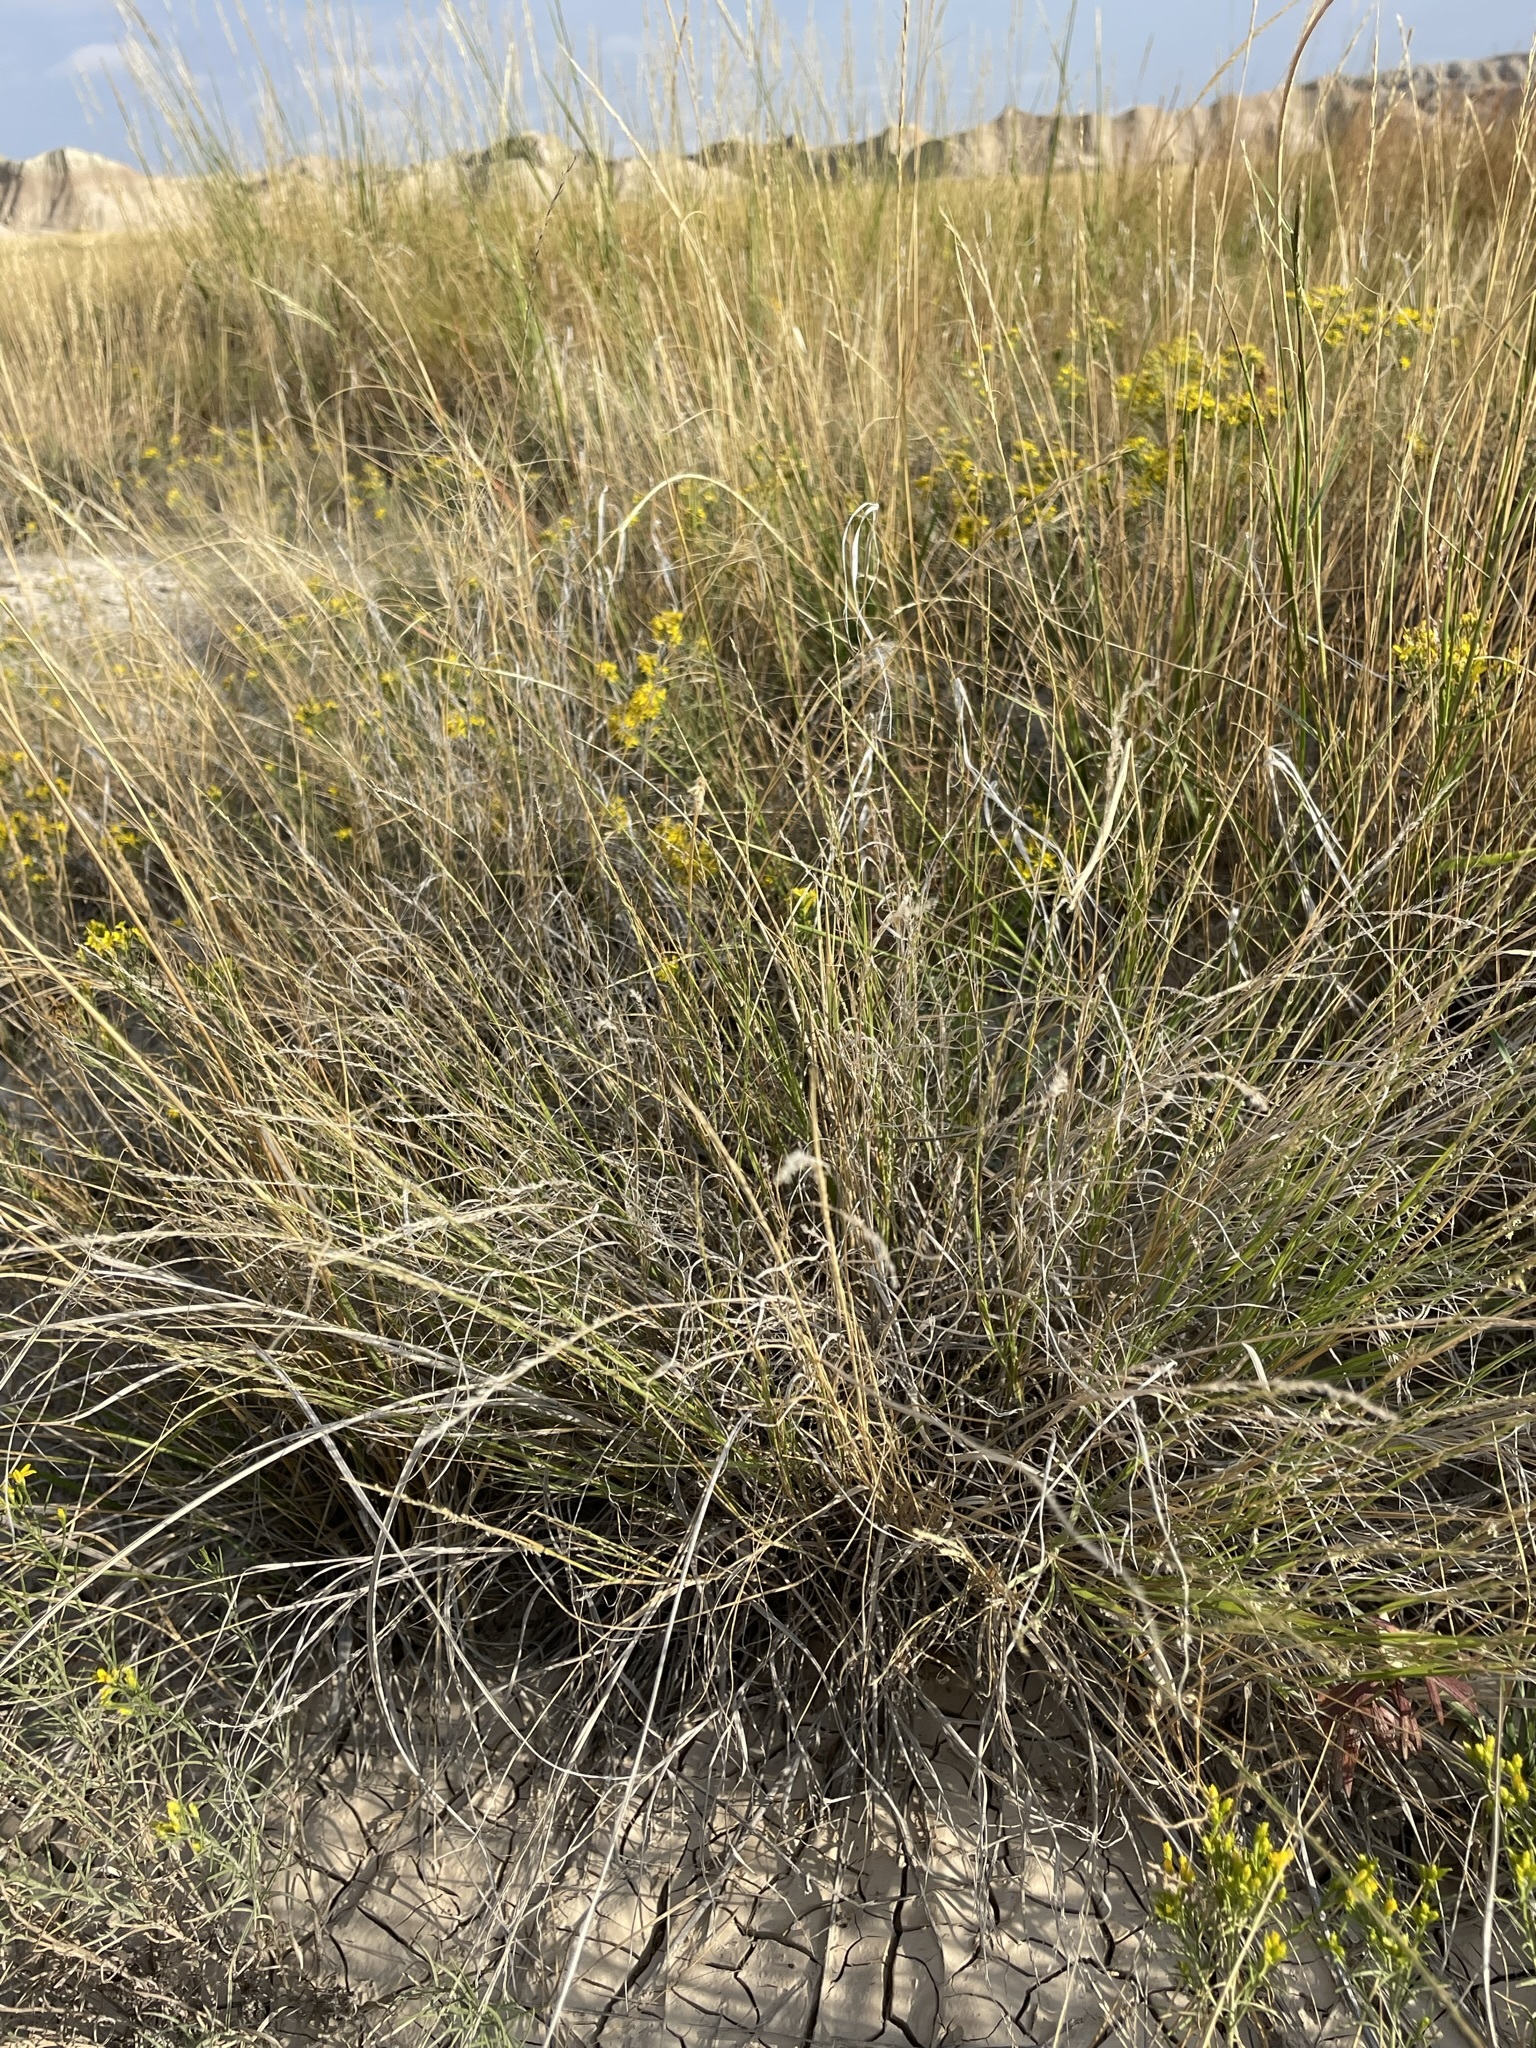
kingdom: Plantae
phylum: Tracheophyta
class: Liliopsida
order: Poales
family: Poaceae
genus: Muhlenbergia
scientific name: Muhlenbergia cuspidata
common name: Plains muhly
